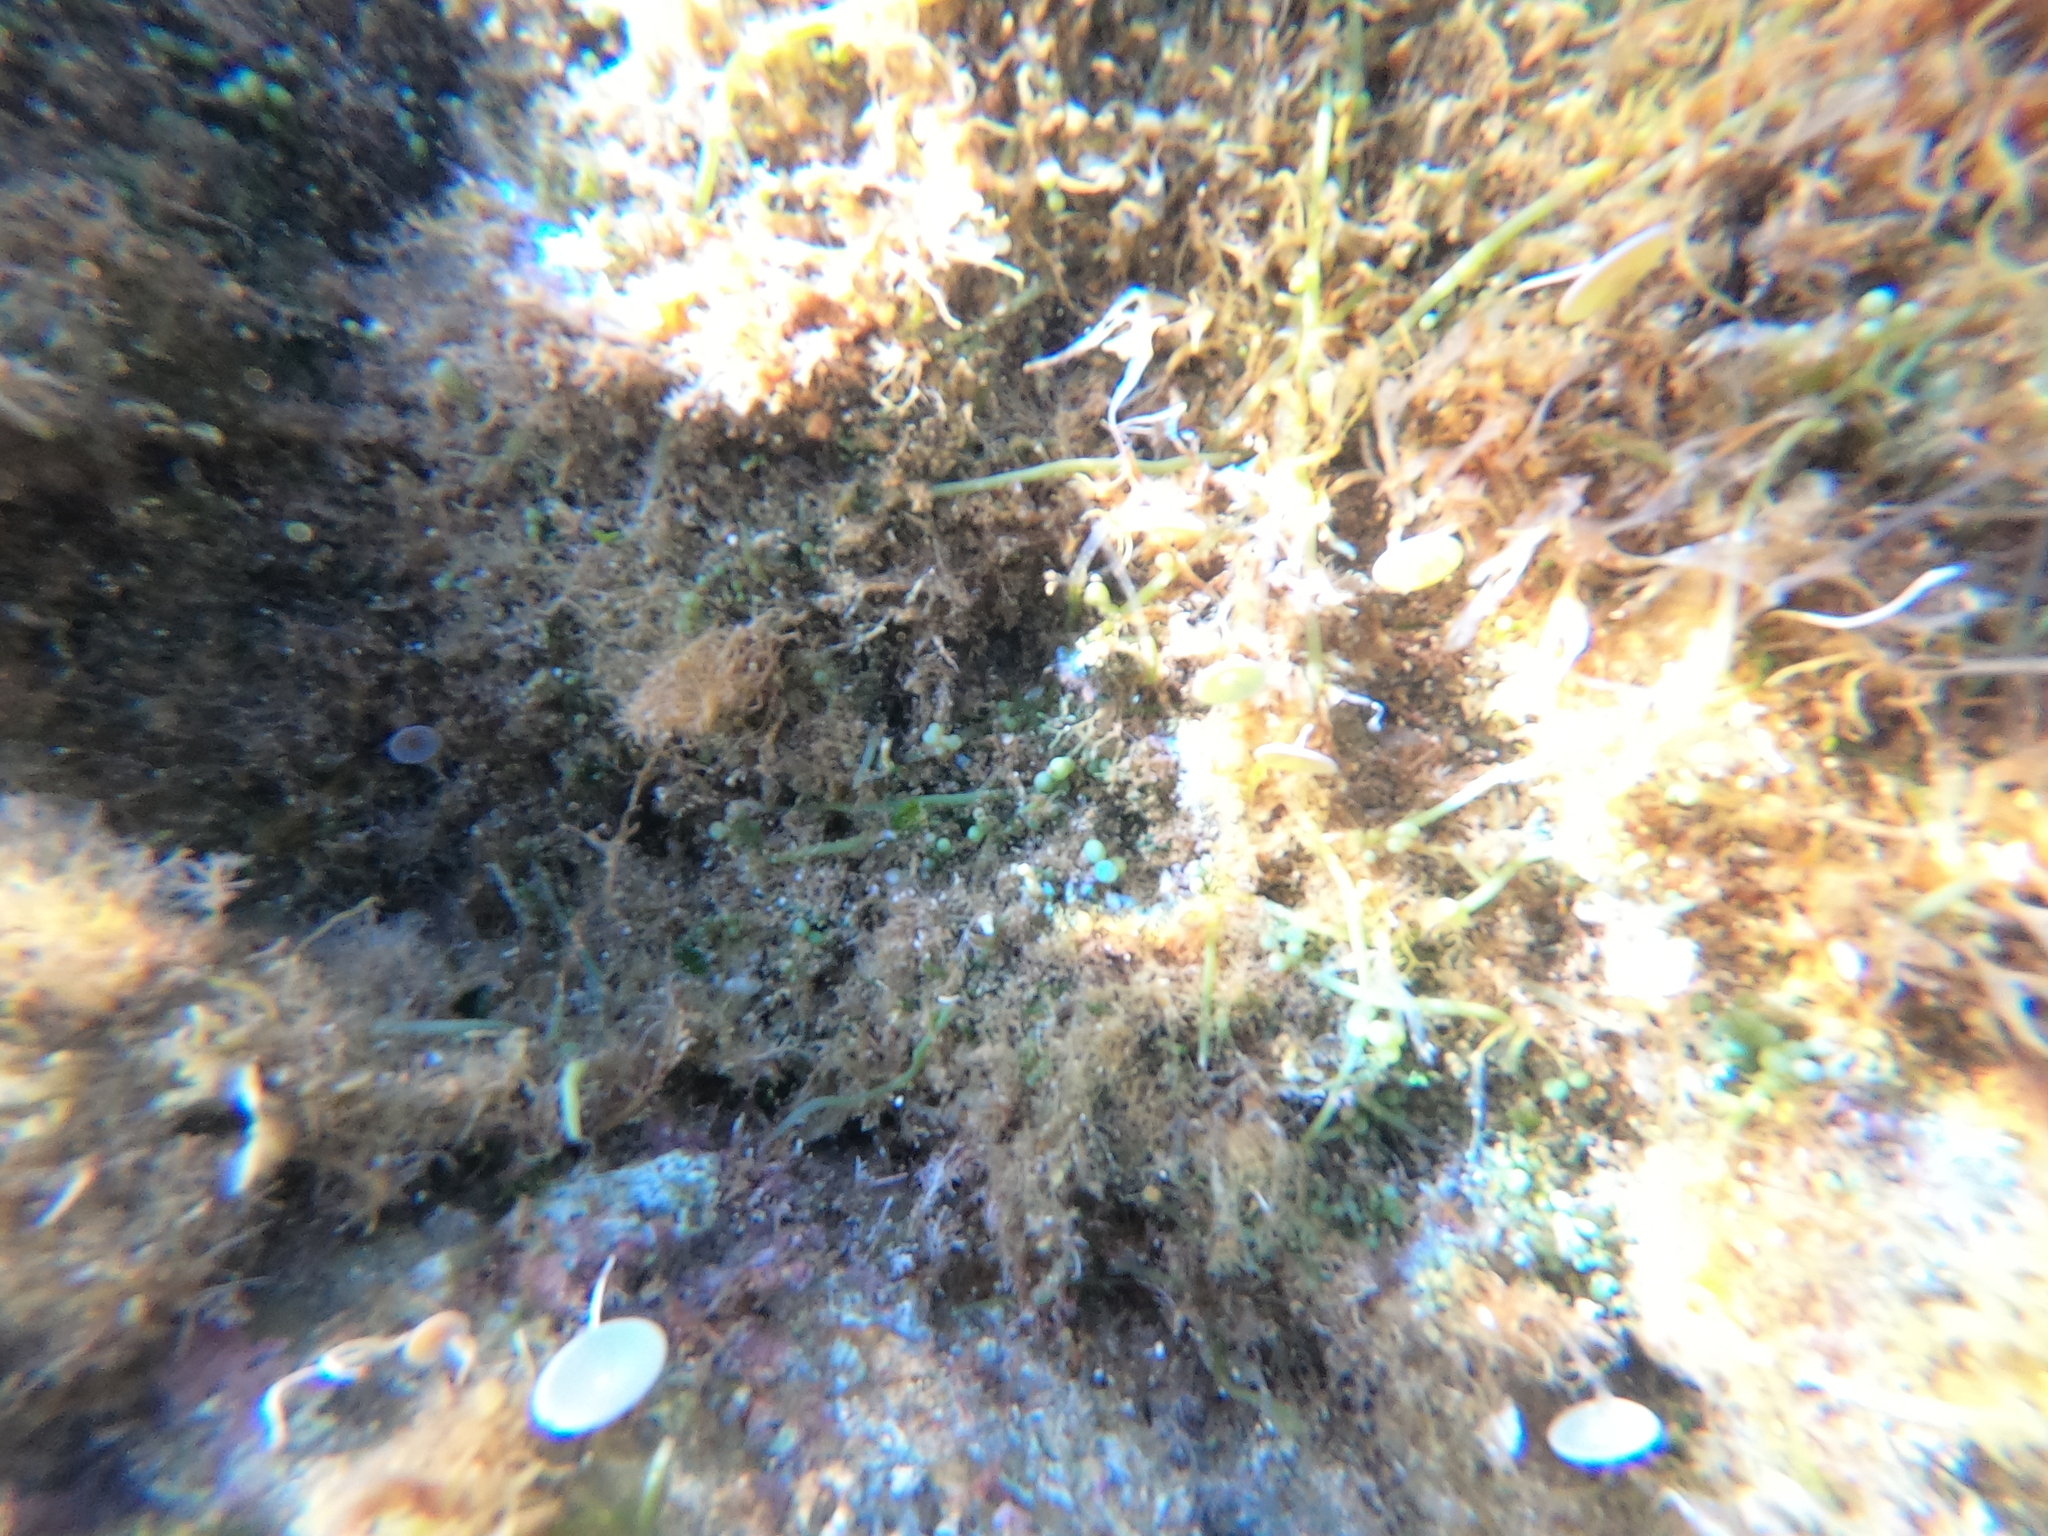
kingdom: Plantae
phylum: Chlorophyta
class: Ulvophyceae
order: Bryopsidales
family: Caulerpaceae
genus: Caulerpa
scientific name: Caulerpa cylindracea
